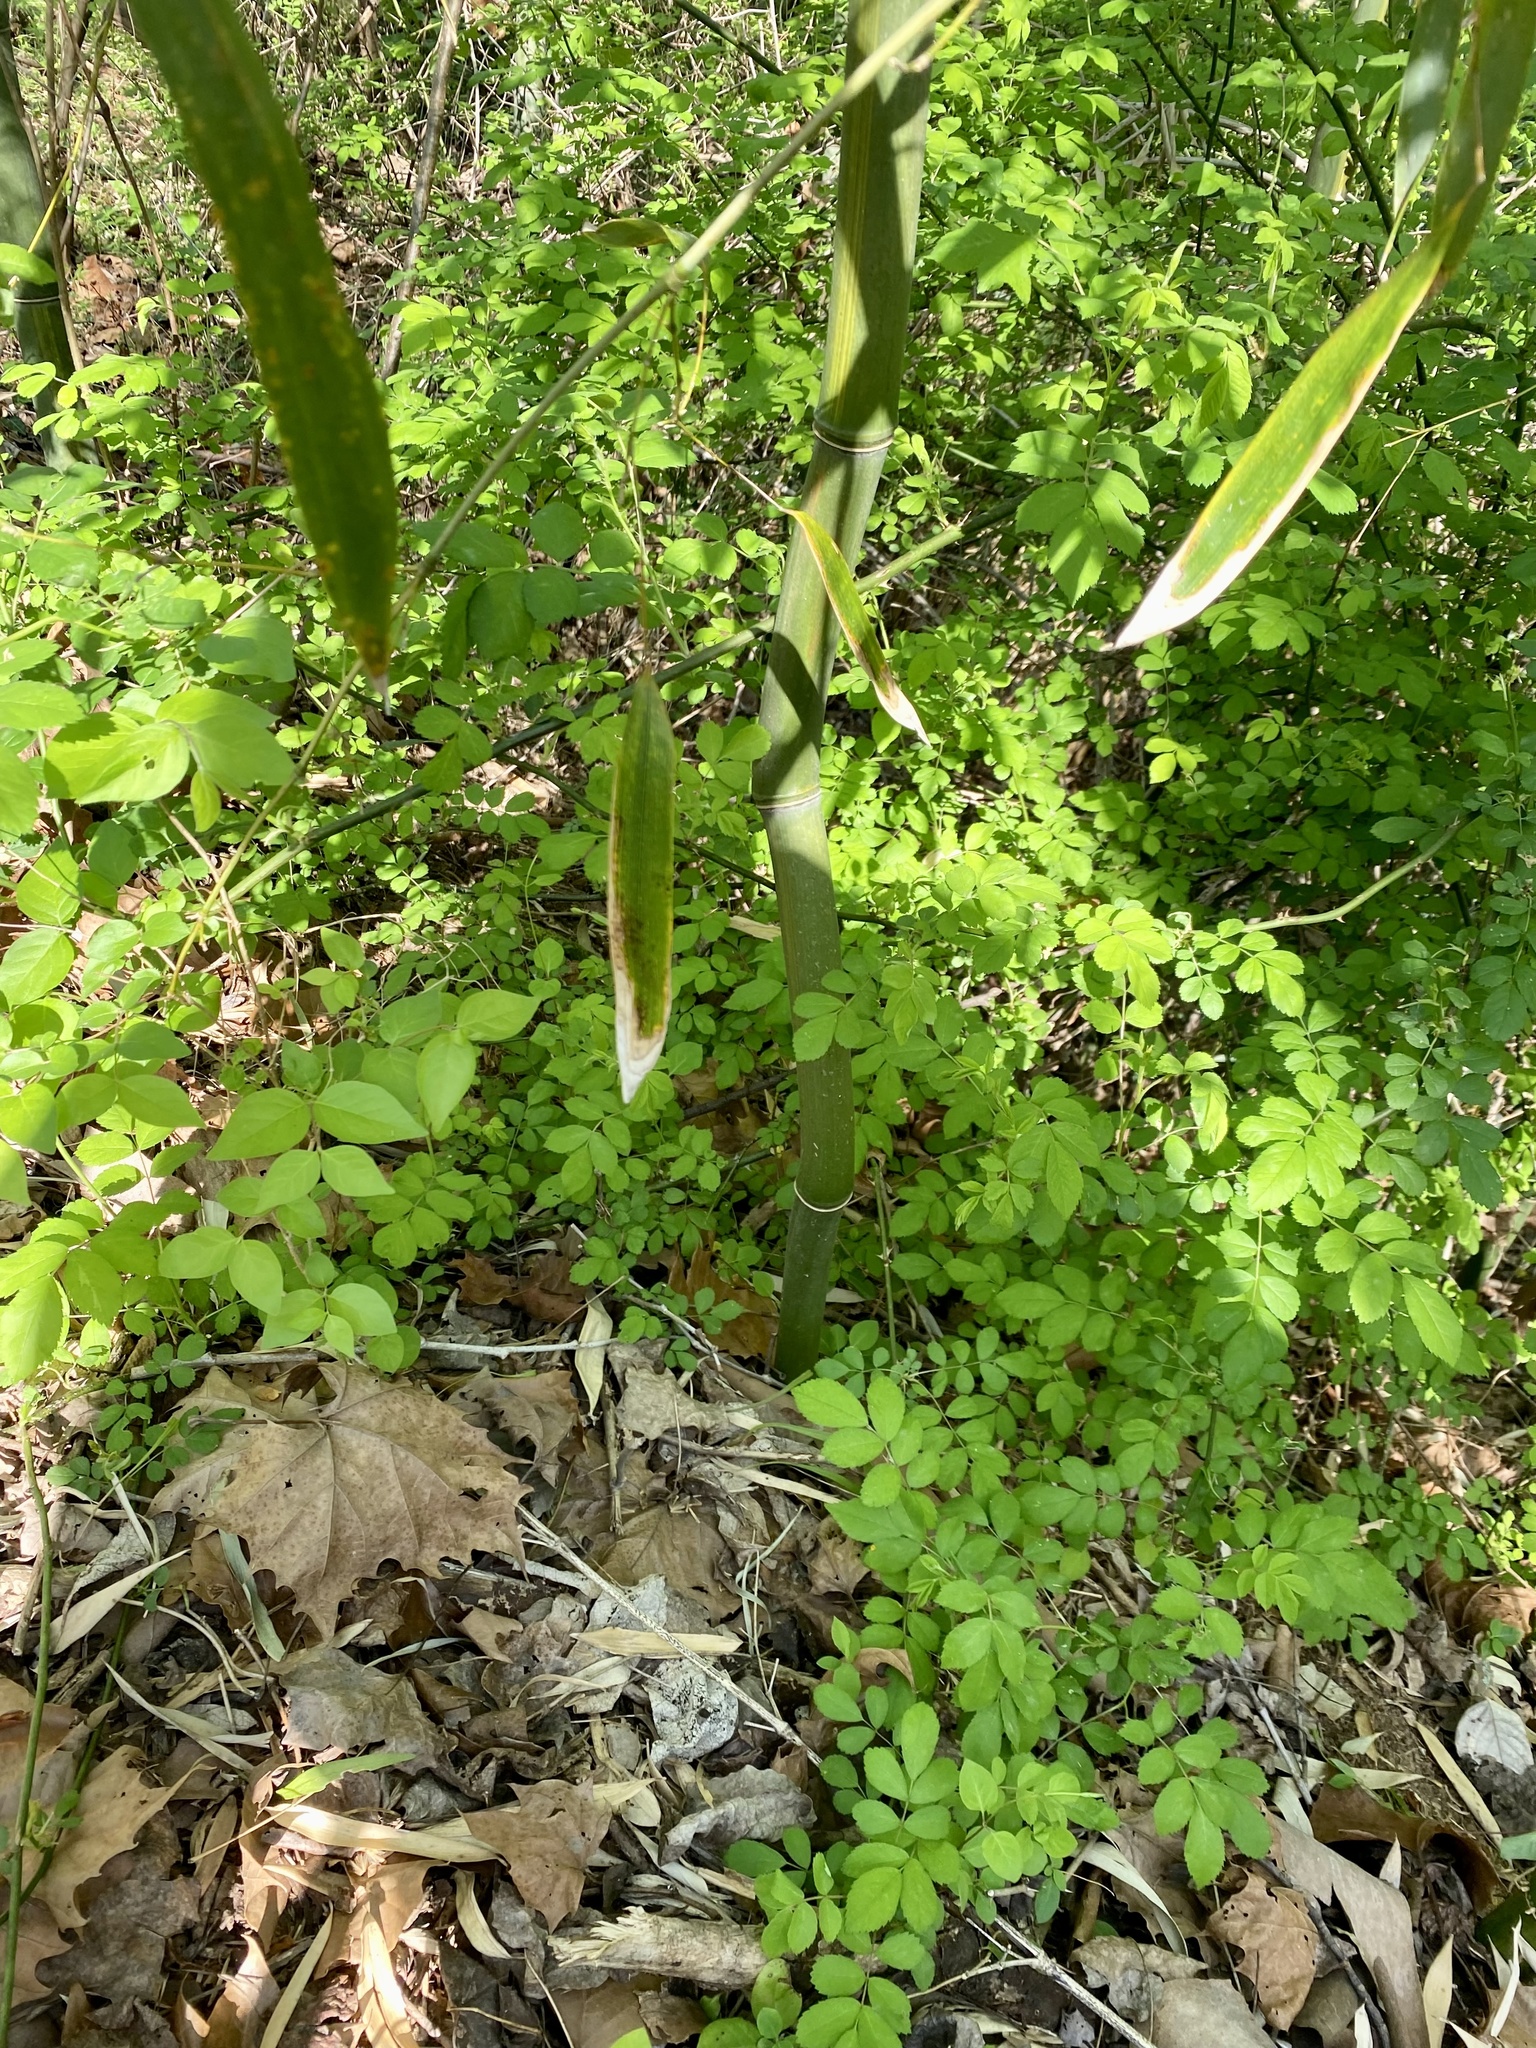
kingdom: Plantae
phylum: Tracheophyta
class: Liliopsida
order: Poales
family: Poaceae
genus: Phyllostachys
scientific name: Phyllostachys aureosulcata
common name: Yellow groove bamboo
